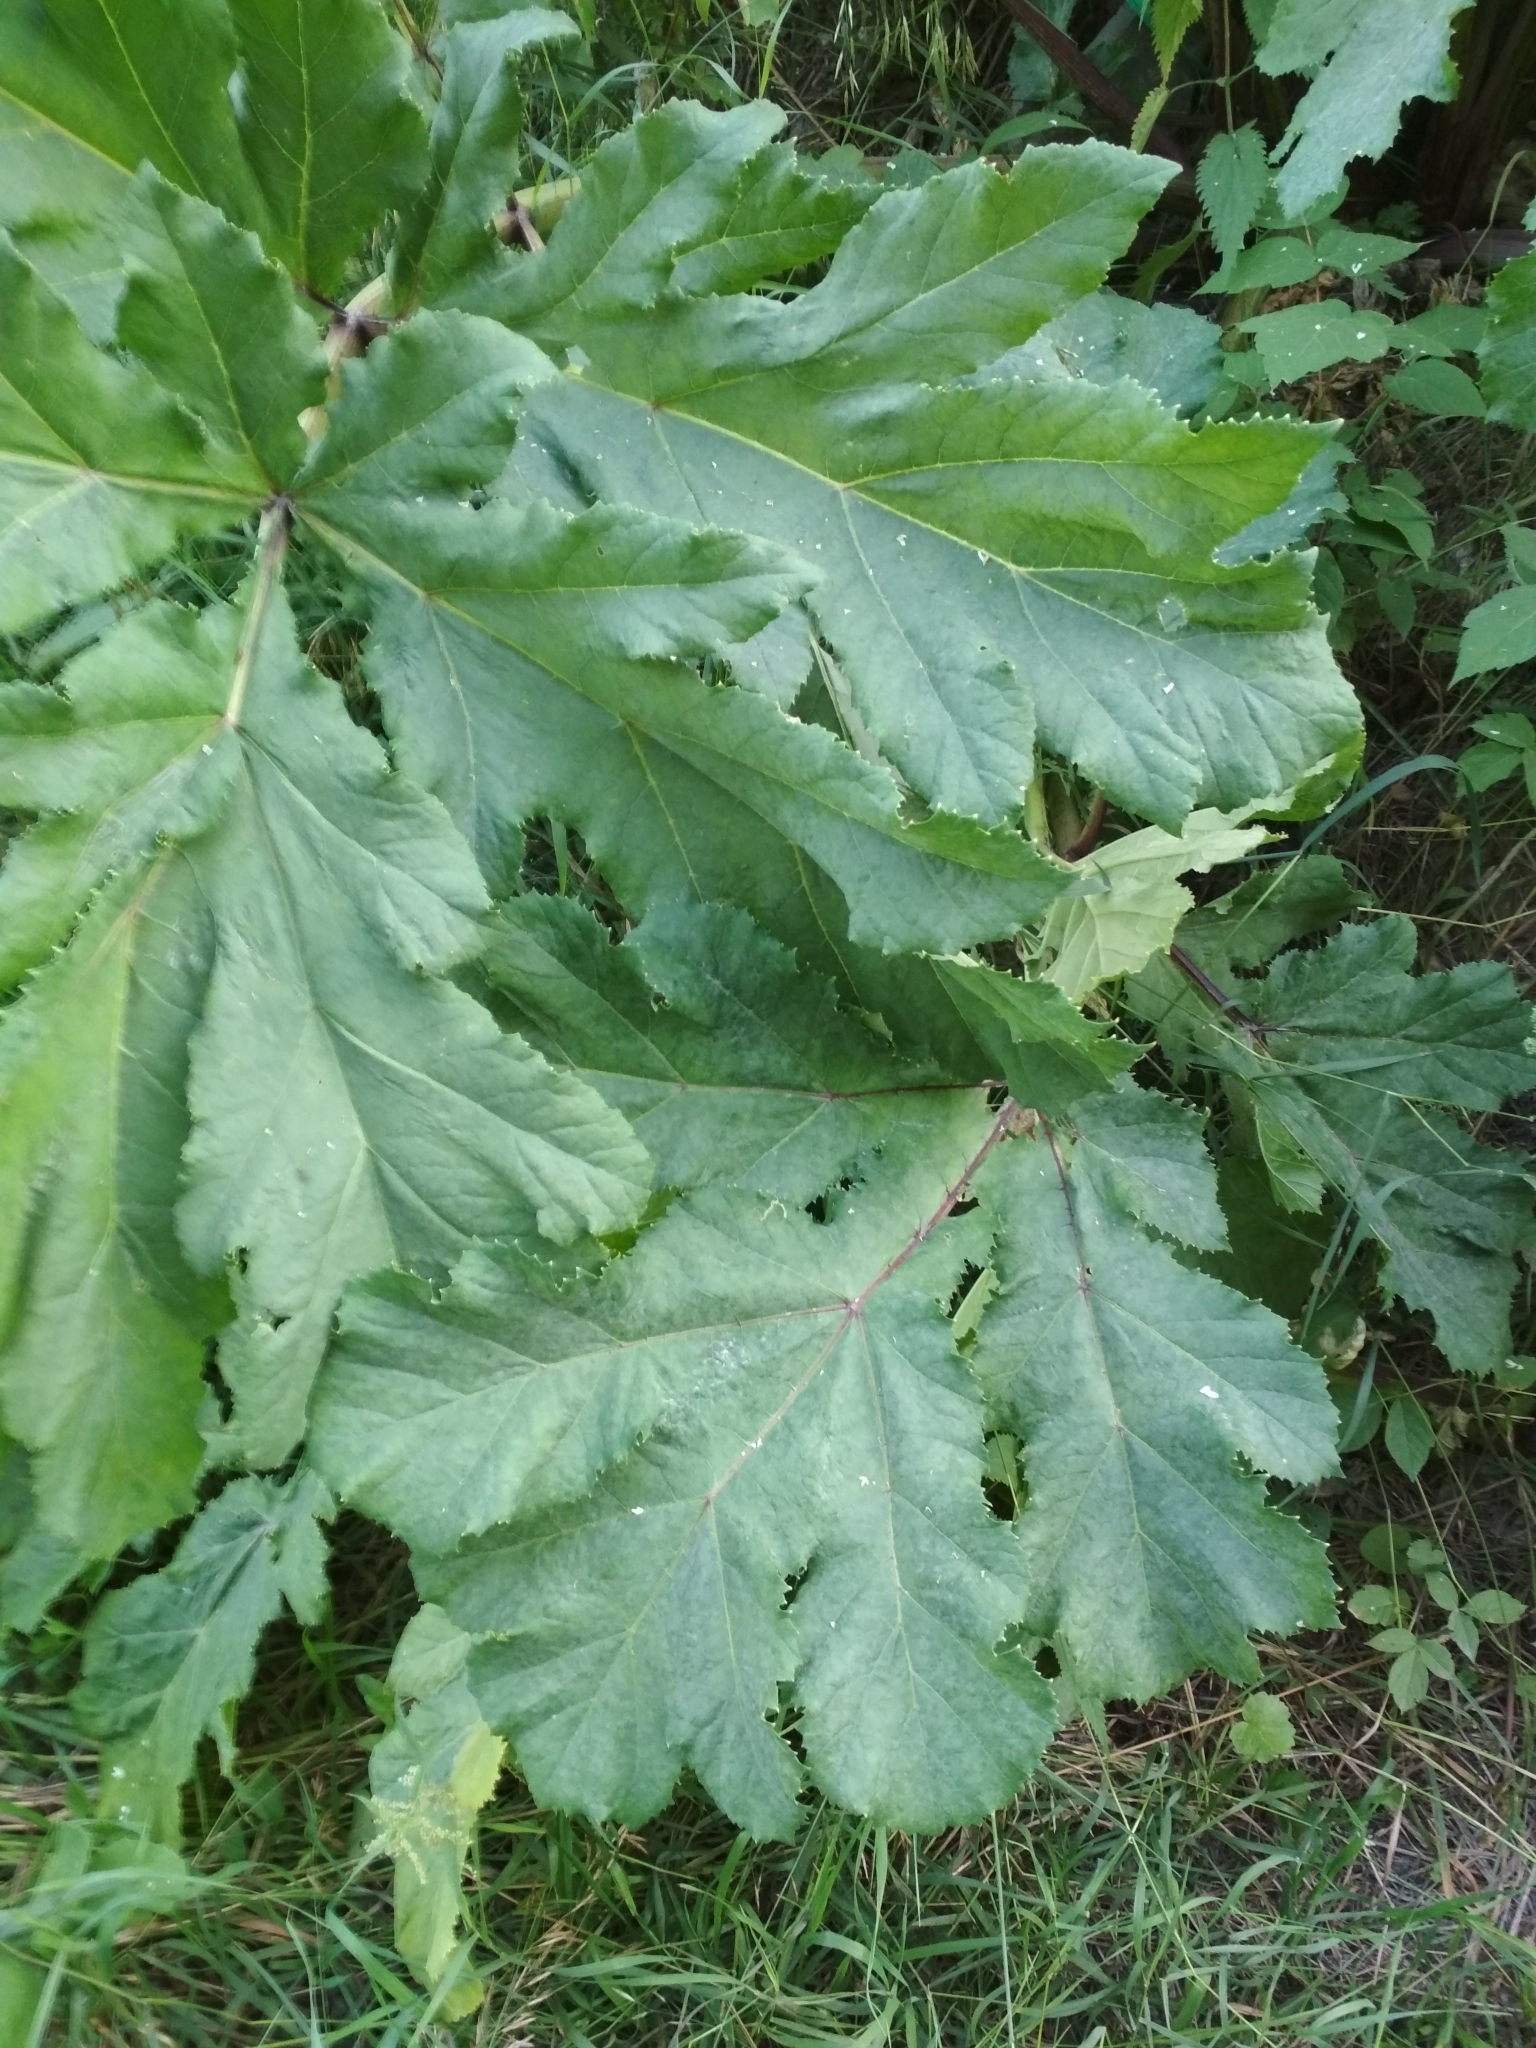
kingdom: Plantae
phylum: Tracheophyta
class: Magnoliopsida
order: Apiales
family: Apiaceae
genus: Heracleum
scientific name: Heracleum sosnowskyi
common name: Sosnowsky's hogweed
